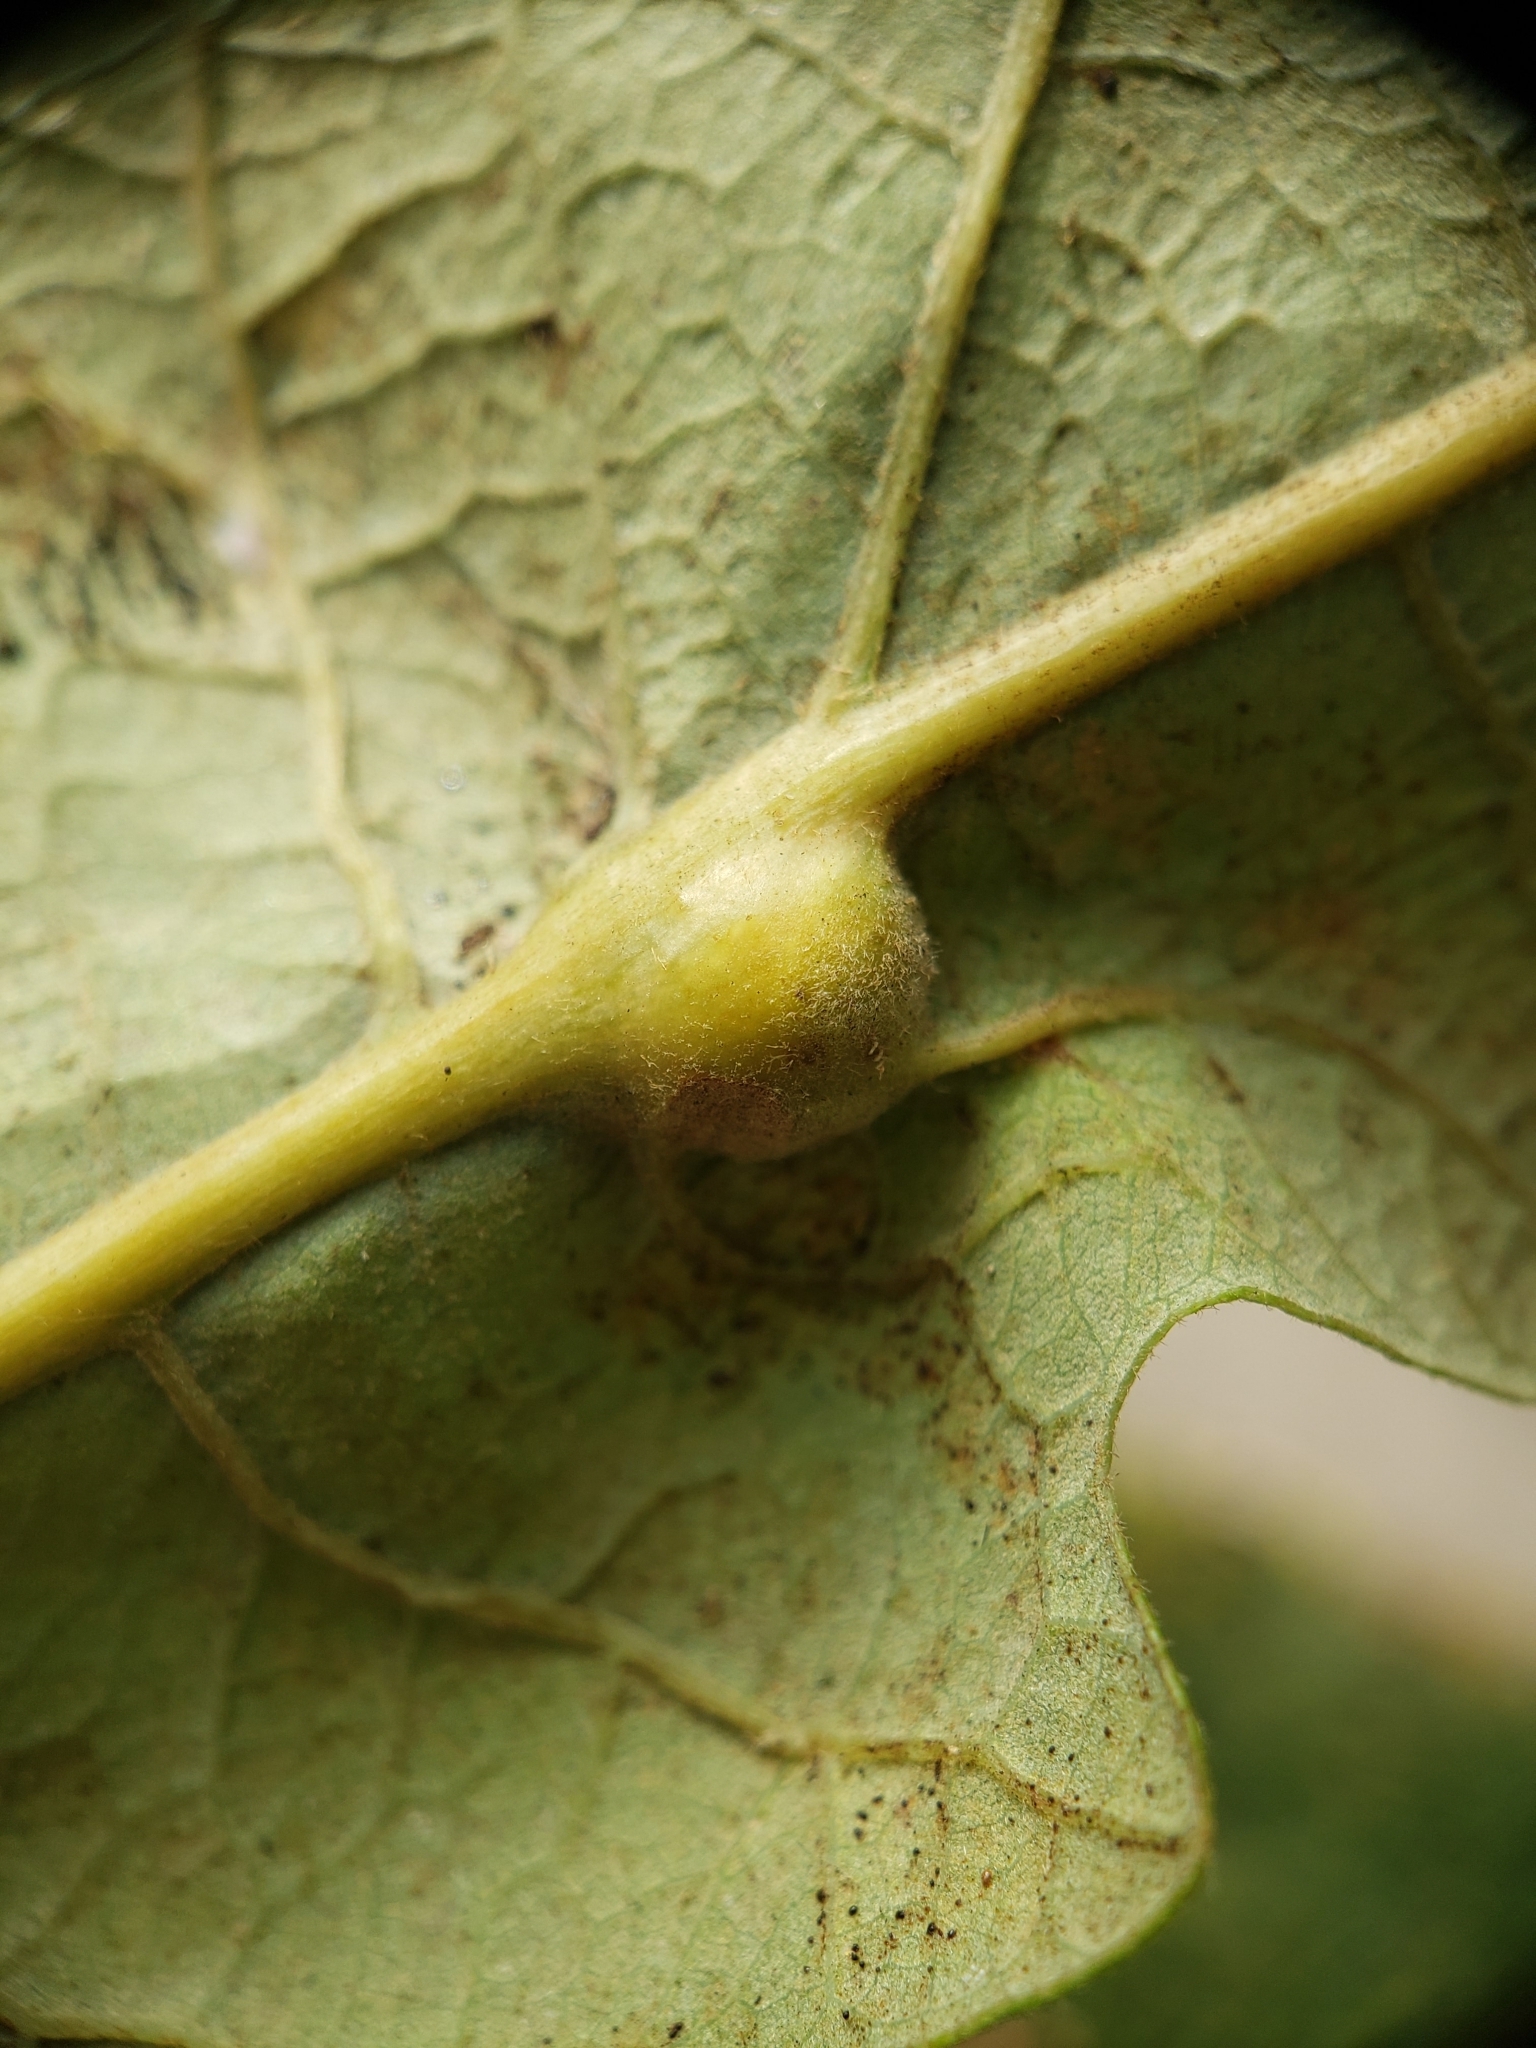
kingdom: Animalia
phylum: Arthropoda
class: Insecta
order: Hymenoptera
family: Cynipidae
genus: Bassettia
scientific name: Bassettia flavipes
